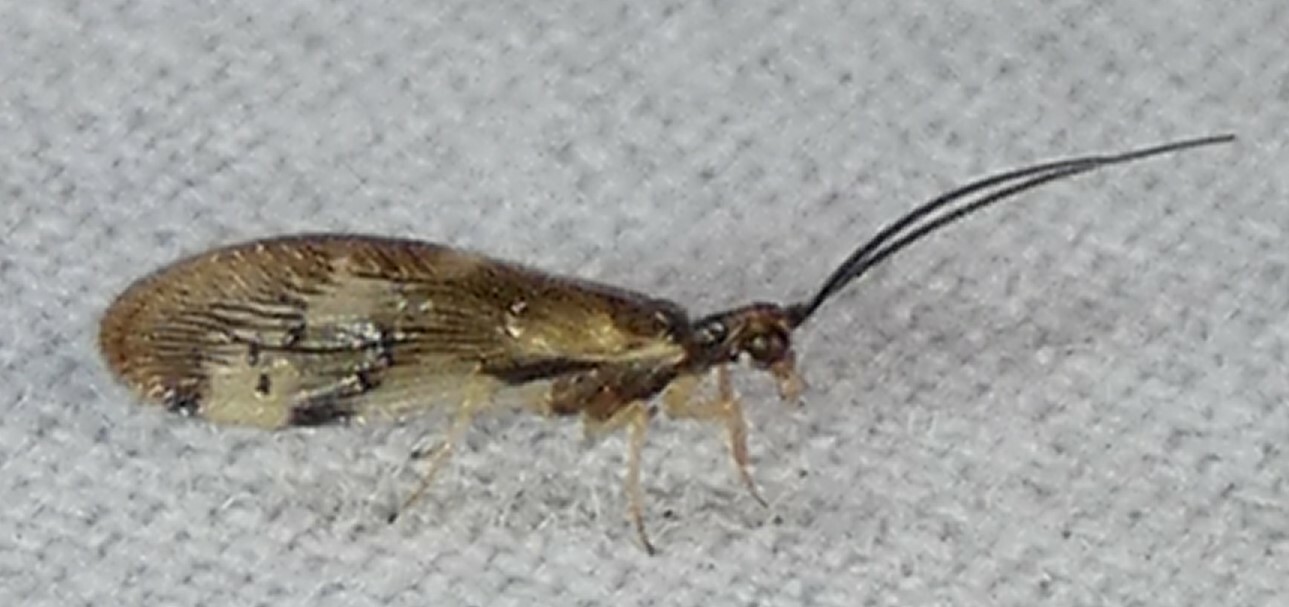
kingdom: Animalia
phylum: Arthropoda
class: Insecta
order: Neuroptera
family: Sisyridae
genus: Climacia
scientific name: Climacia areolaris
